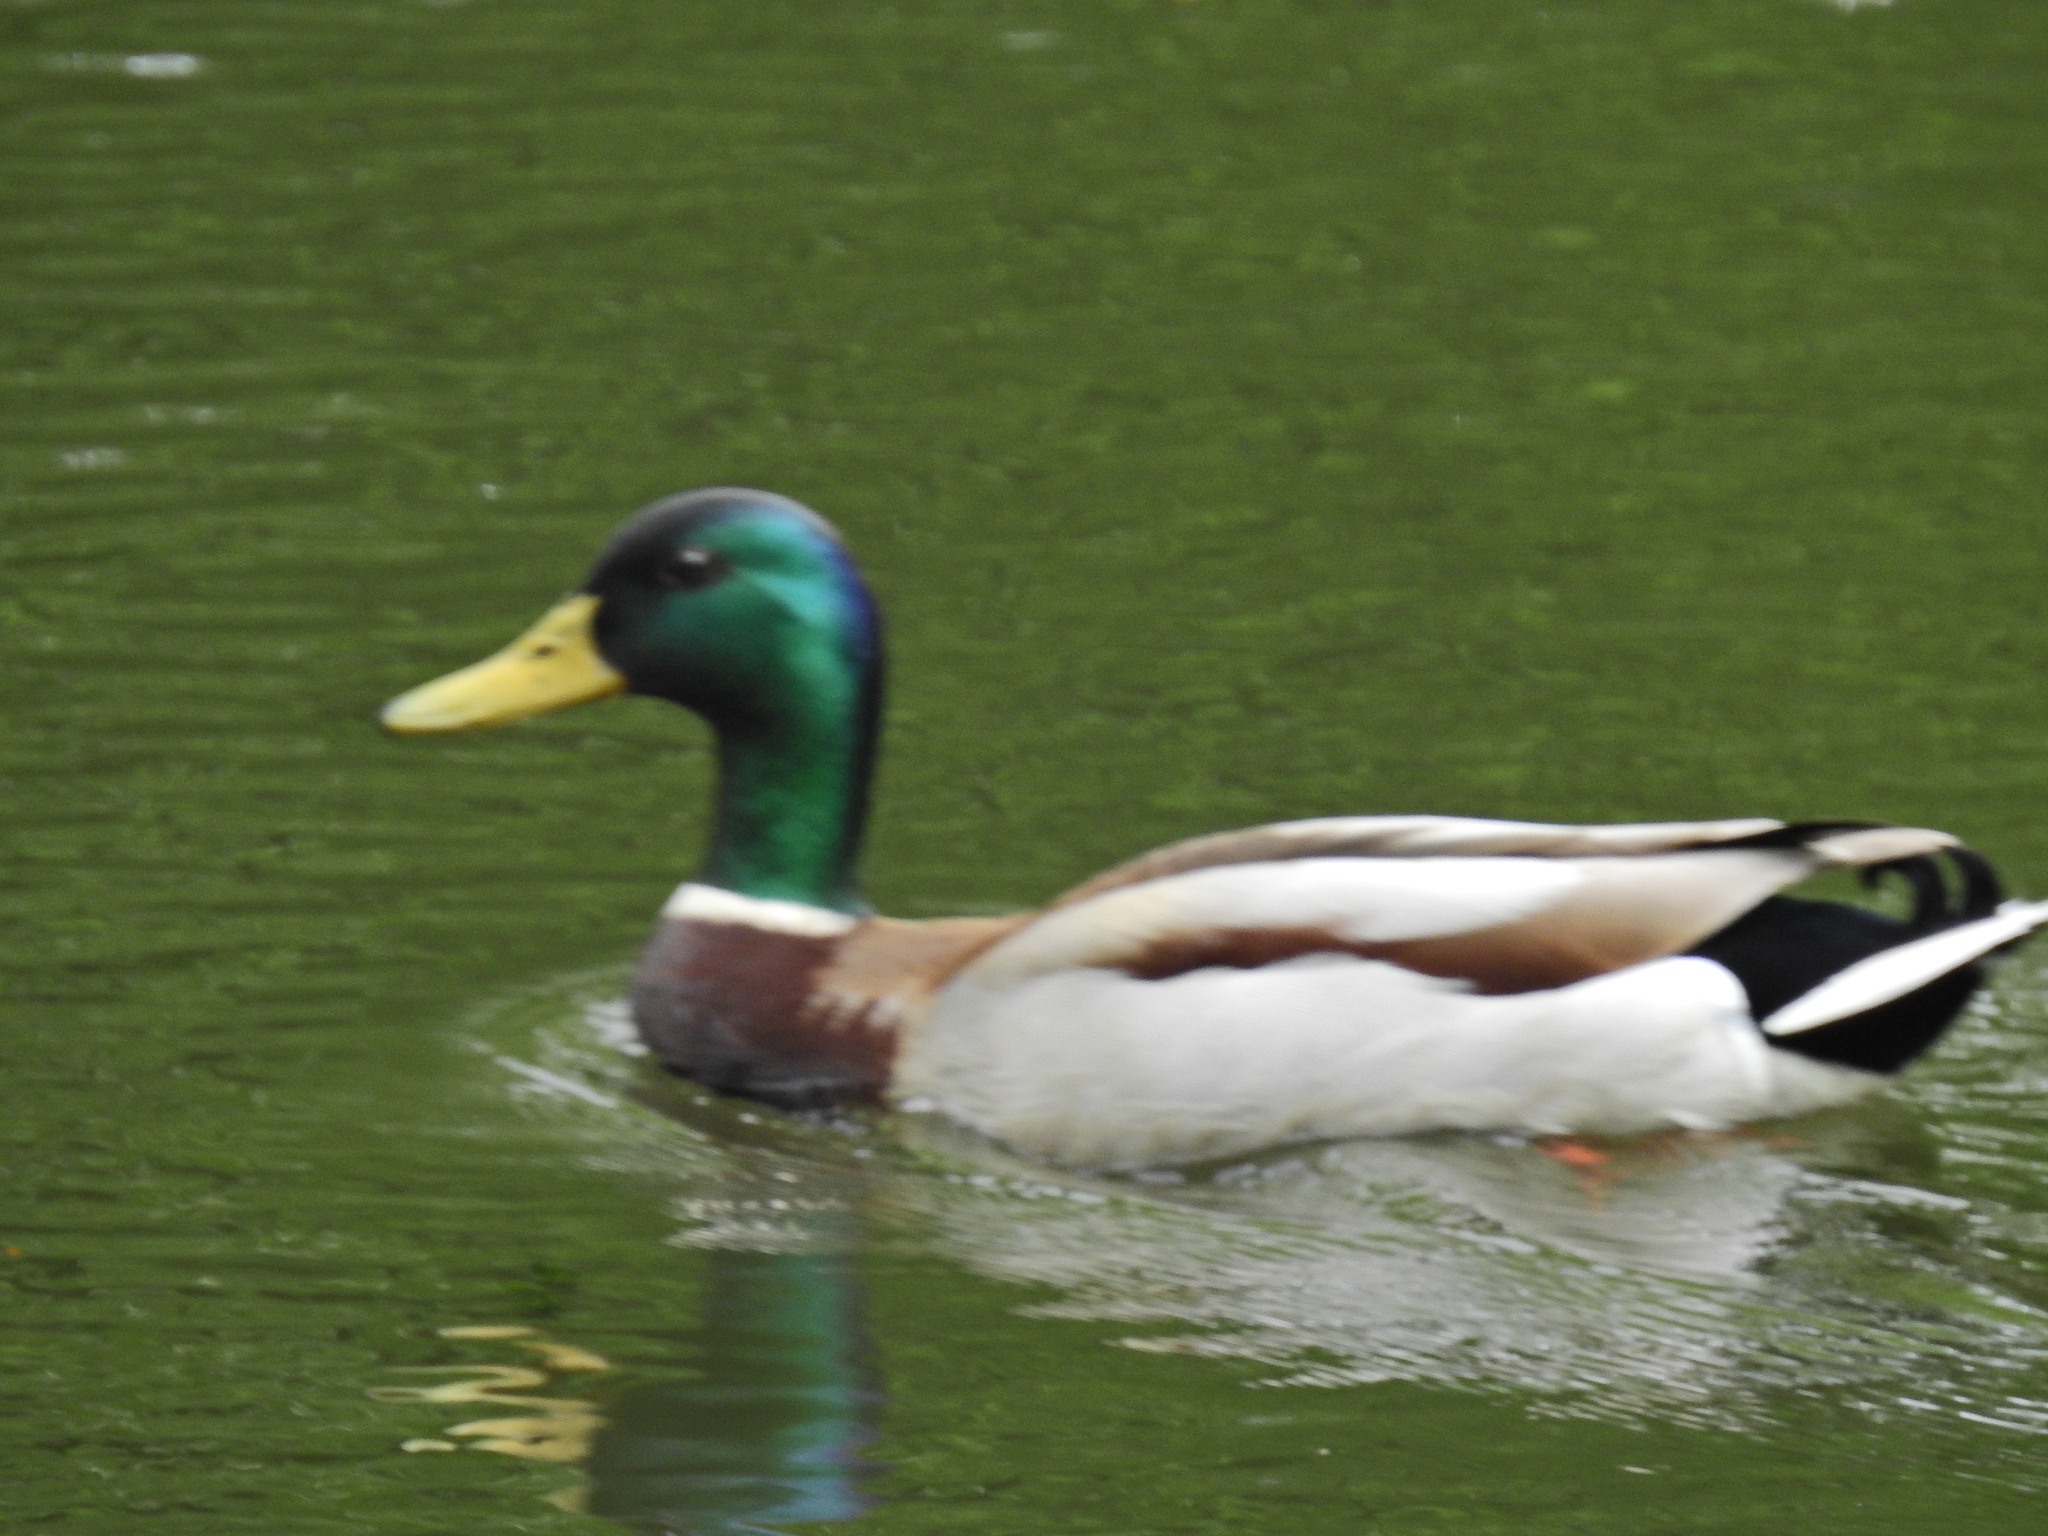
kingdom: Animalia
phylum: Chordata
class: Aves
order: Anseriformes
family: Anatidae
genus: Anas
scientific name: Anas platyrhynchos
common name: Mallard
